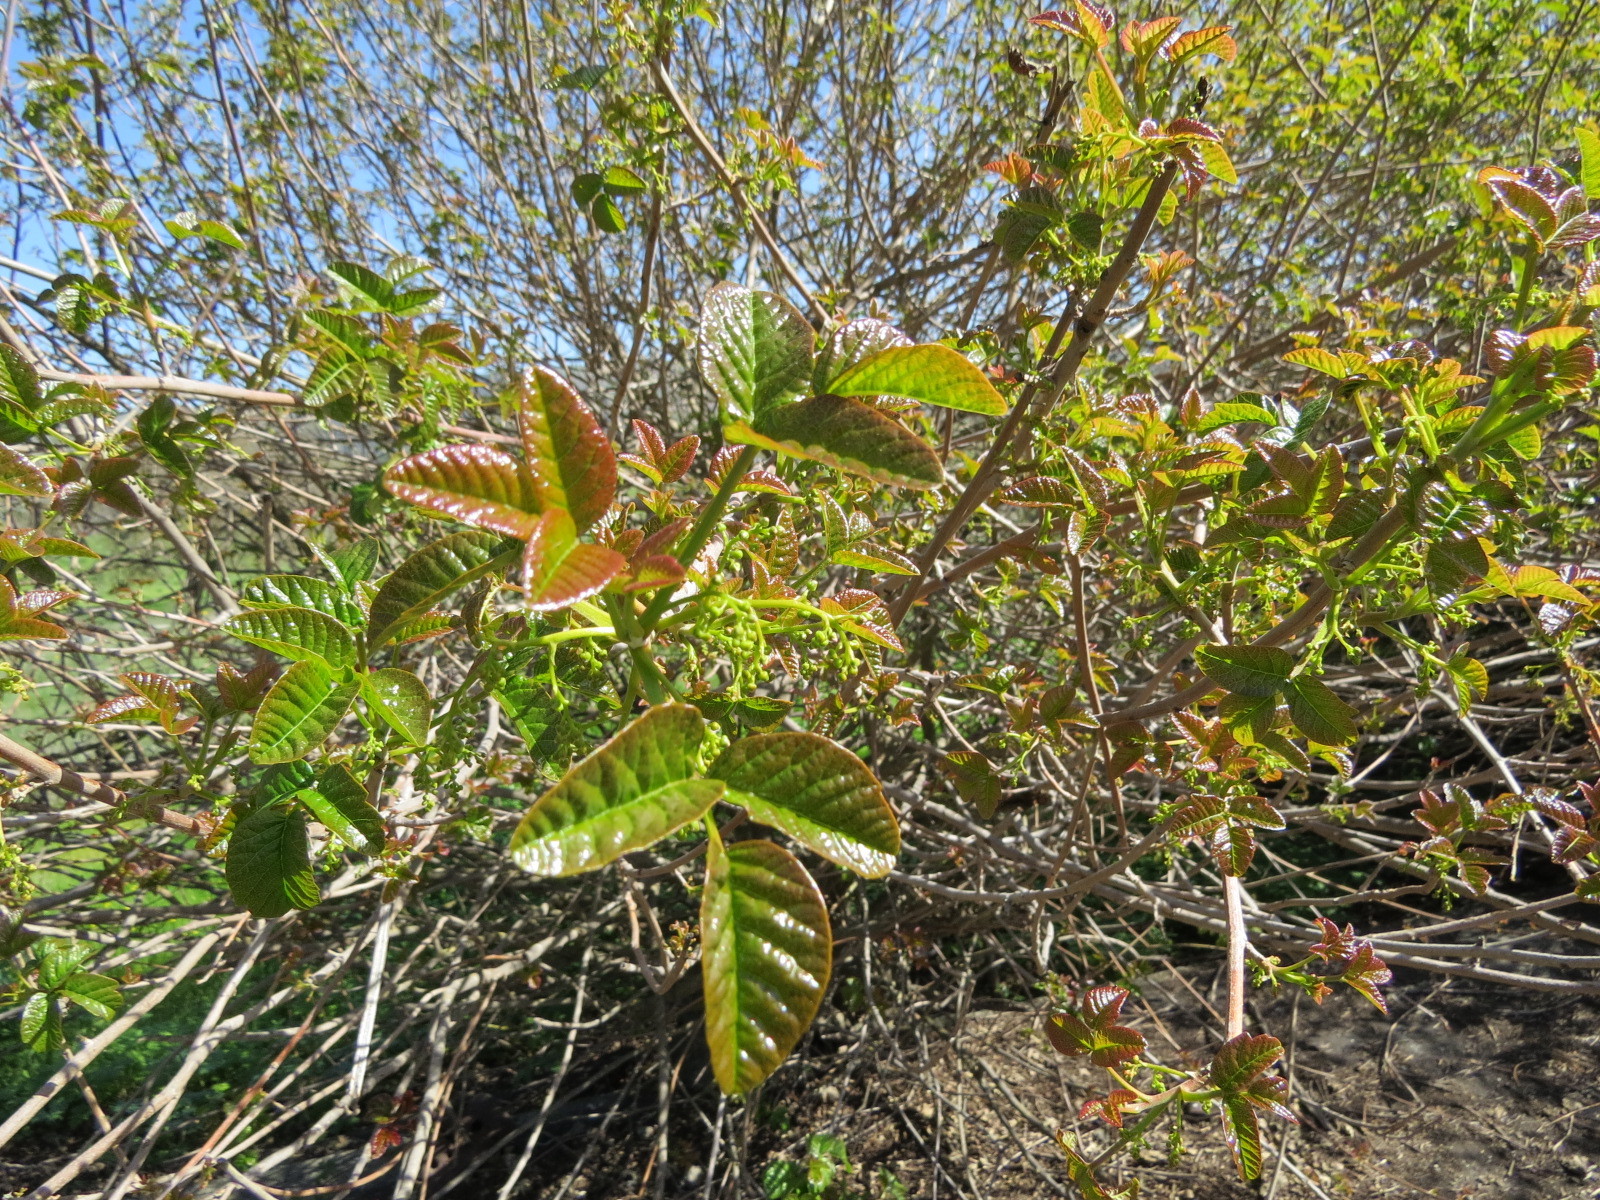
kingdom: Plantae
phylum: Tracheophyta
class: Magnoliopsida
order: Sapindales
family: Anacardiaceae
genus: Toxicodendron
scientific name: Toxicodendron diversilobum
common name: Pacific poison-oak
